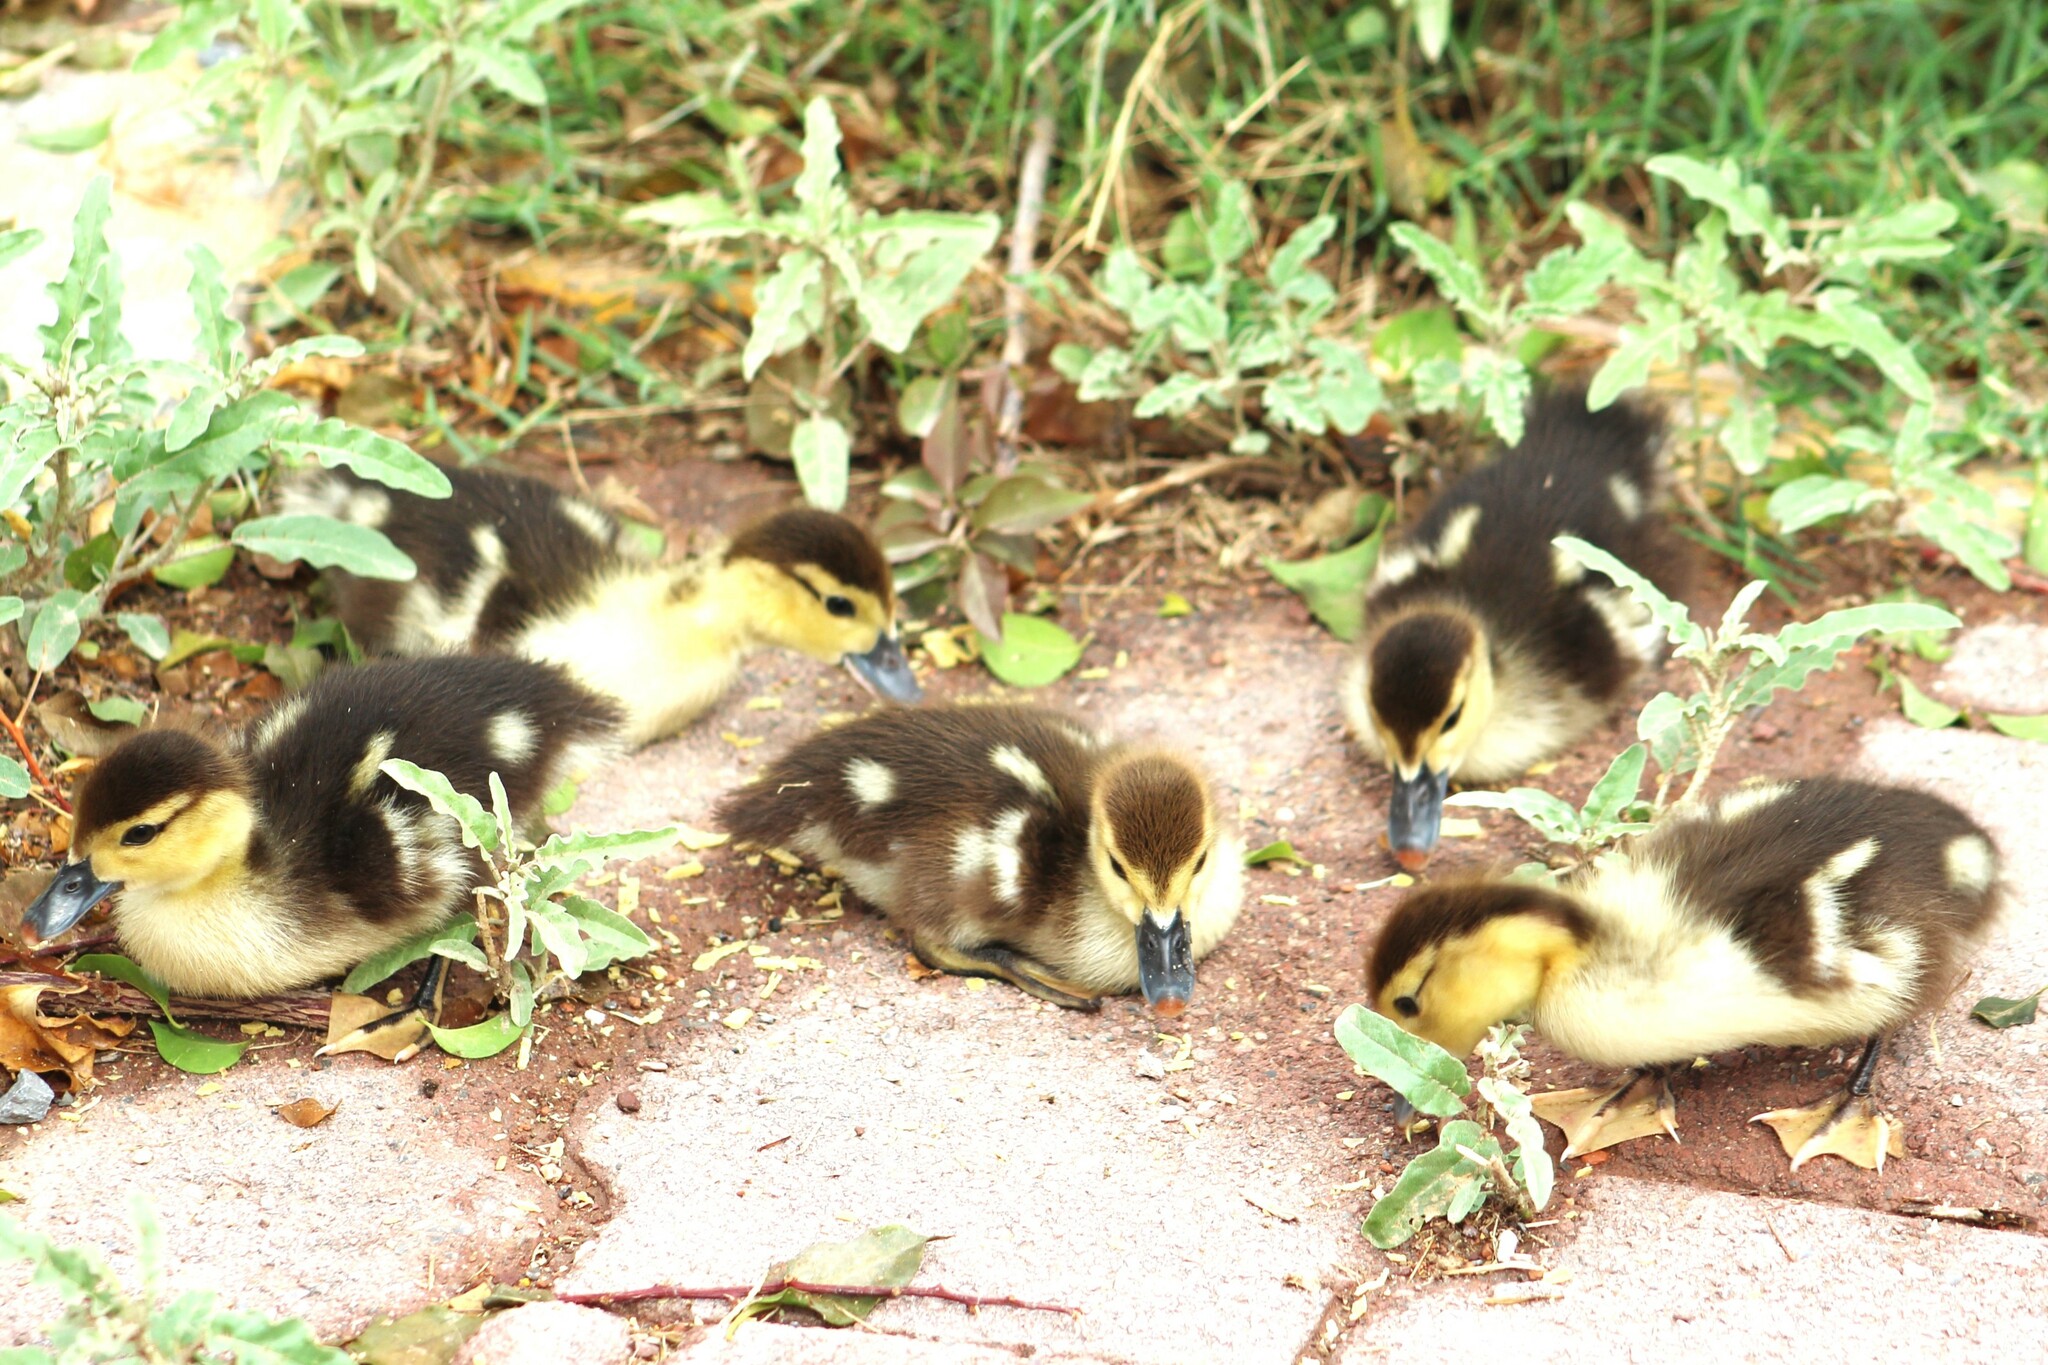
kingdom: Animalia
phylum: Chordata
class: Aves
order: Anseriformes
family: Anatidae
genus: Cairina
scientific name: Cairina moschata
